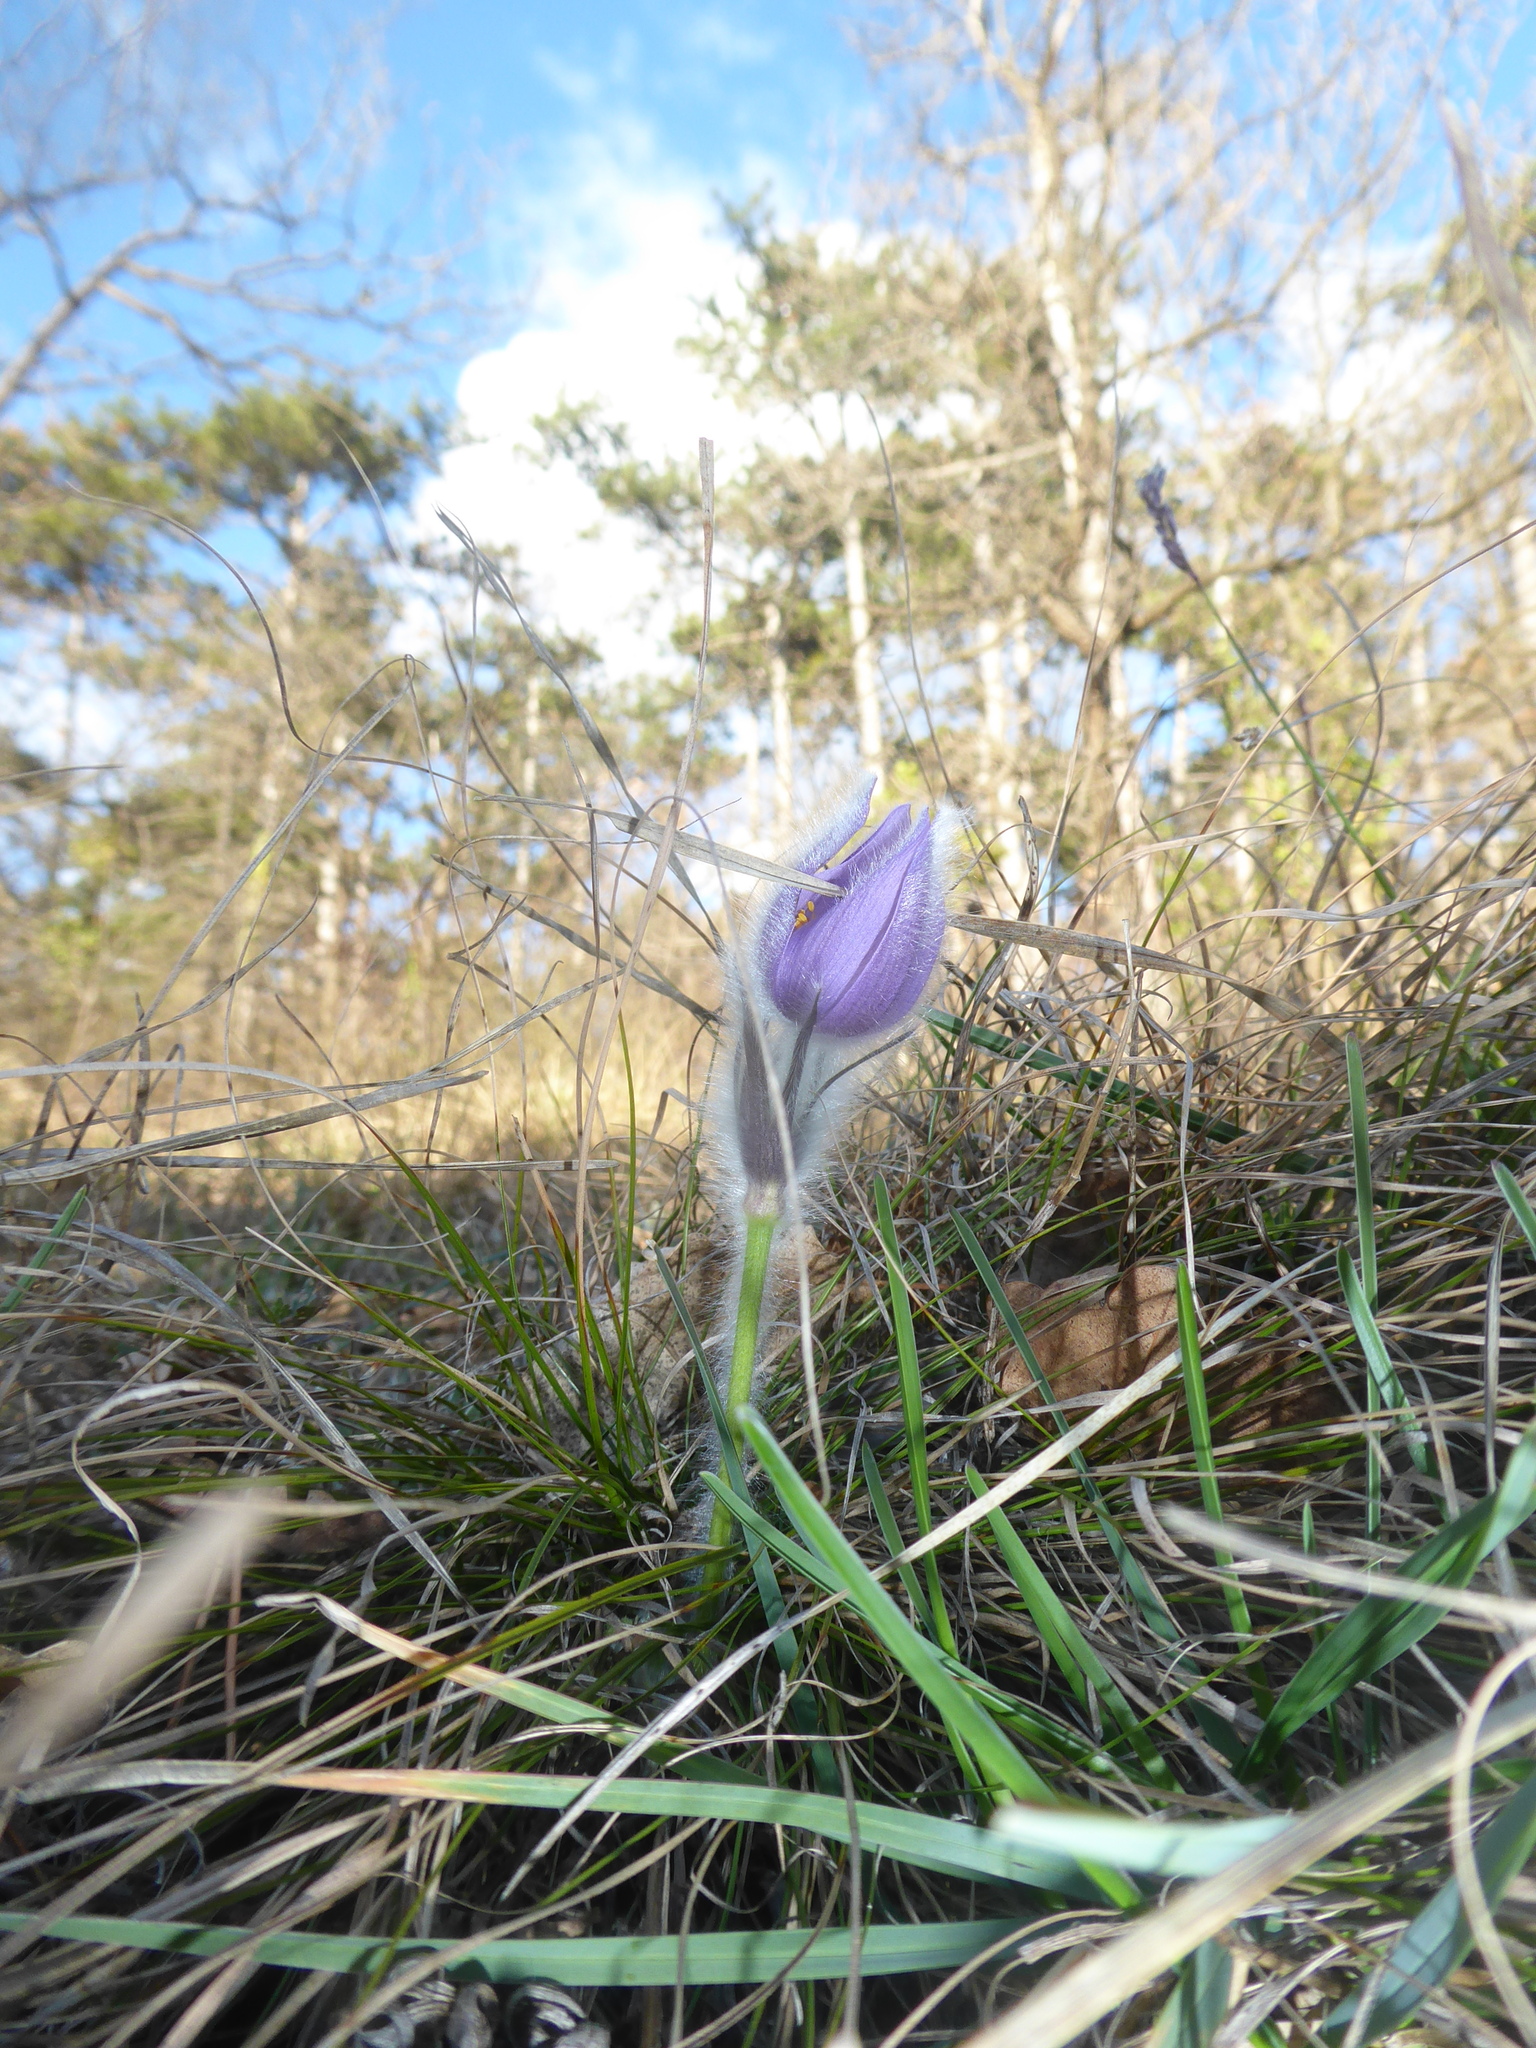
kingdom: Plantae
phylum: Tracheophyta
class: Magnoliopsida
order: Ranunculales
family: Ranunculaceae
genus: Pulsatilla
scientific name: Pulsatilla grandis
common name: Greater pasque flower
